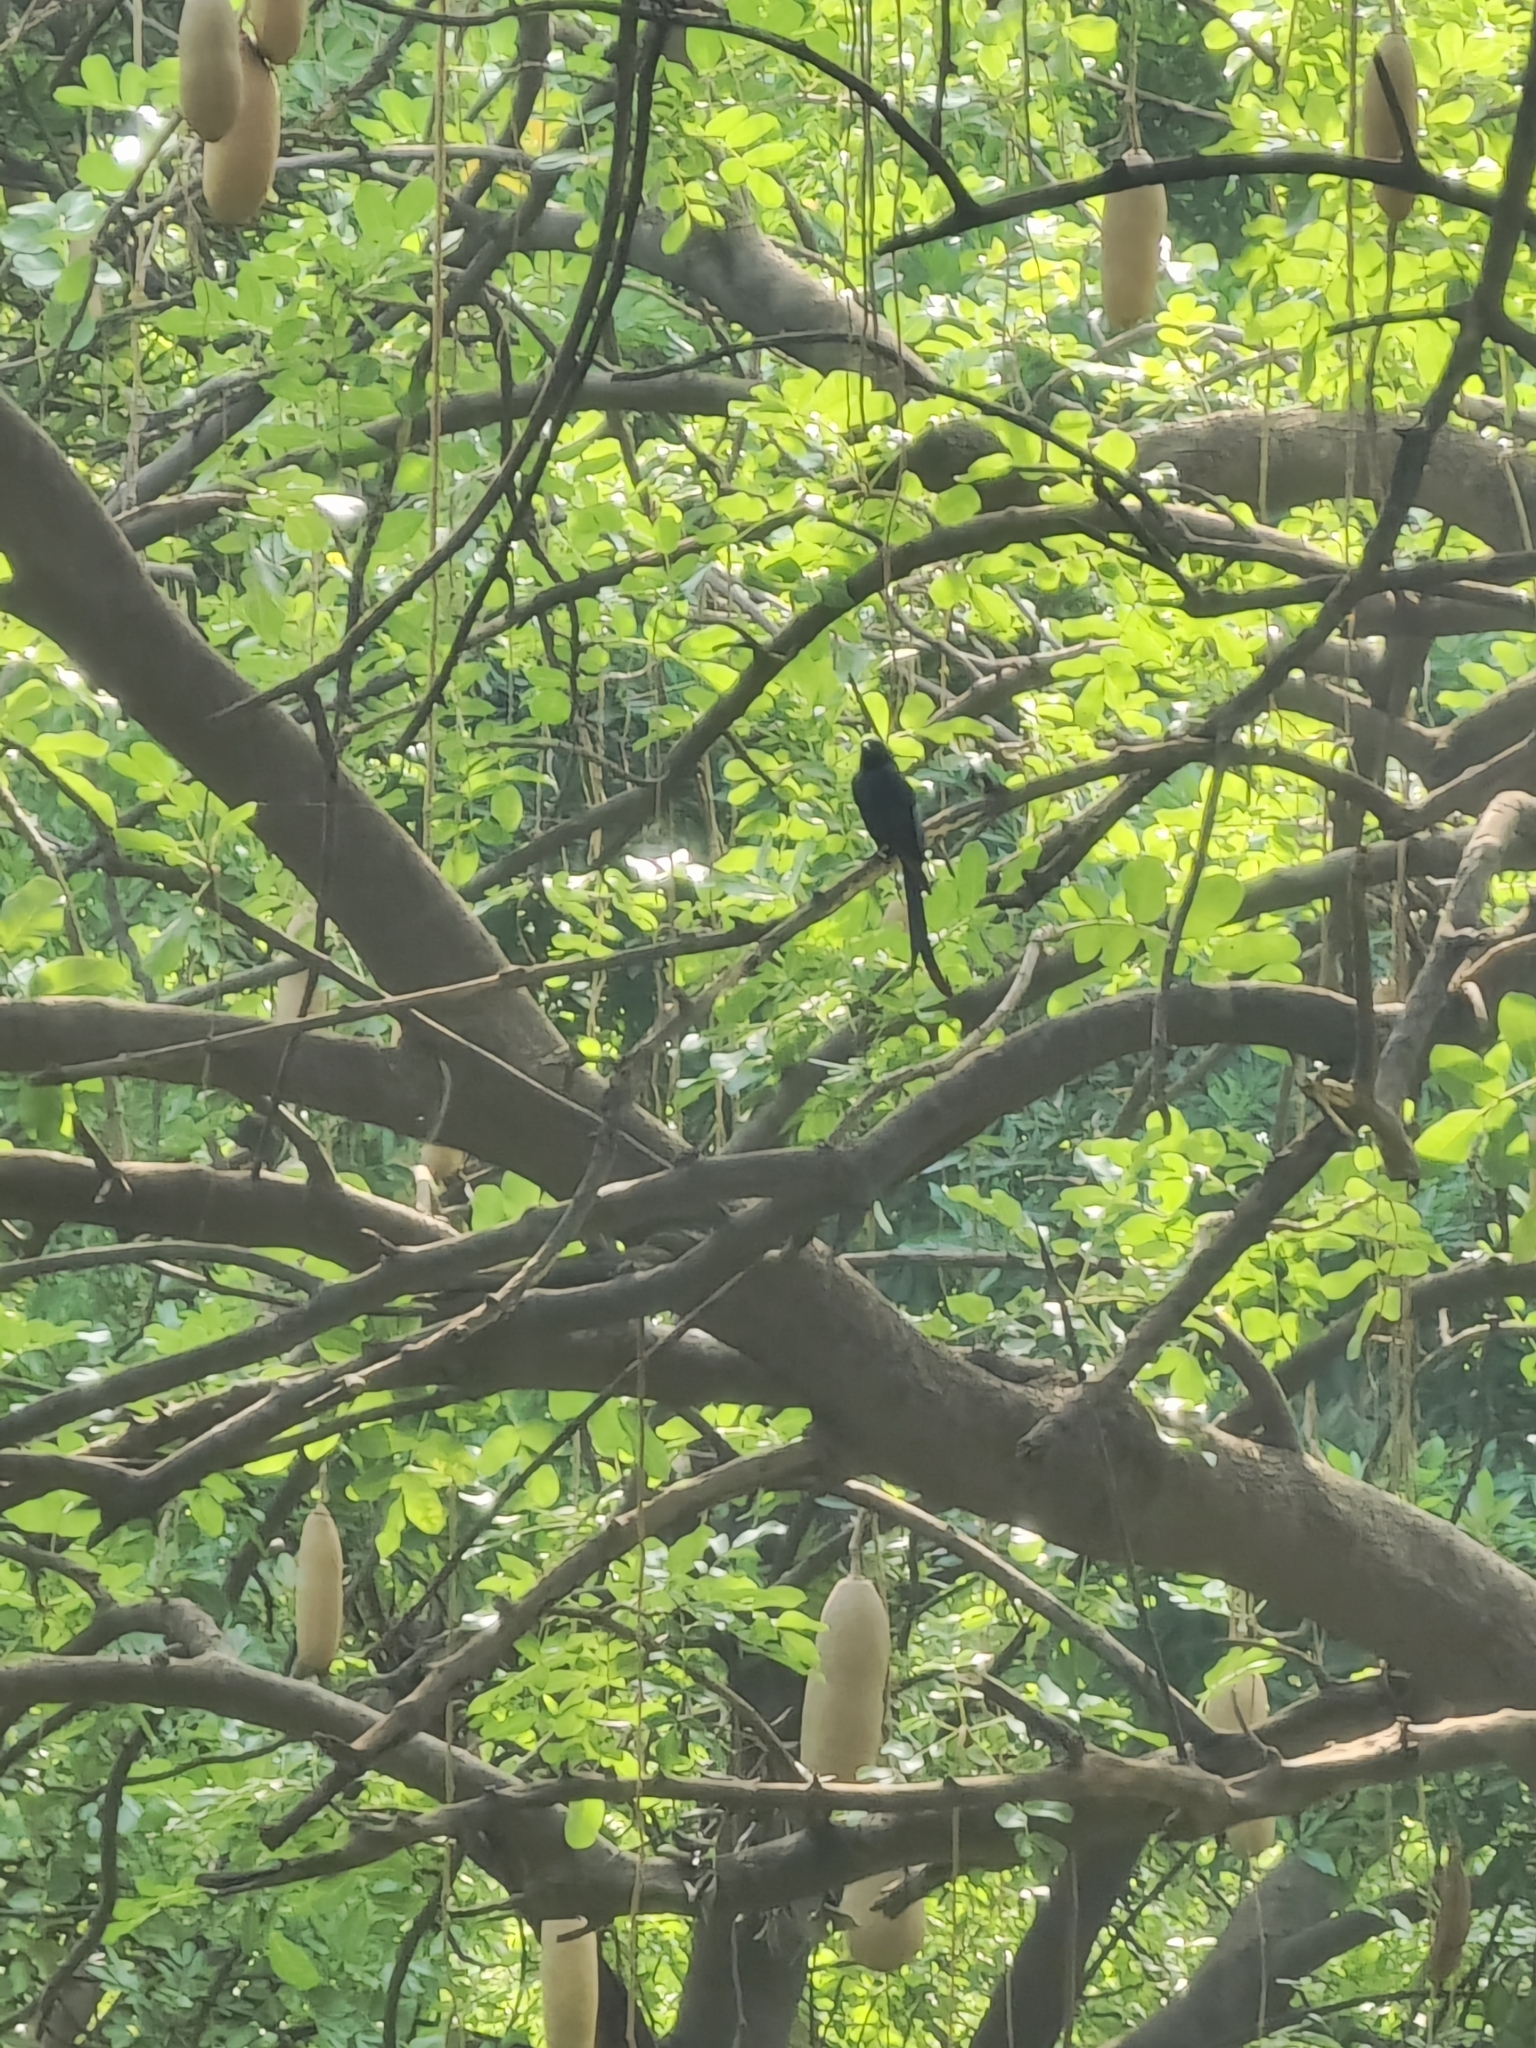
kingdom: Animalia
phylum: Chordata
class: Aves
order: Passeriformes
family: Dicruridae
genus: Dicrurus
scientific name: Dicrurus macrocercus
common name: Black drongo
